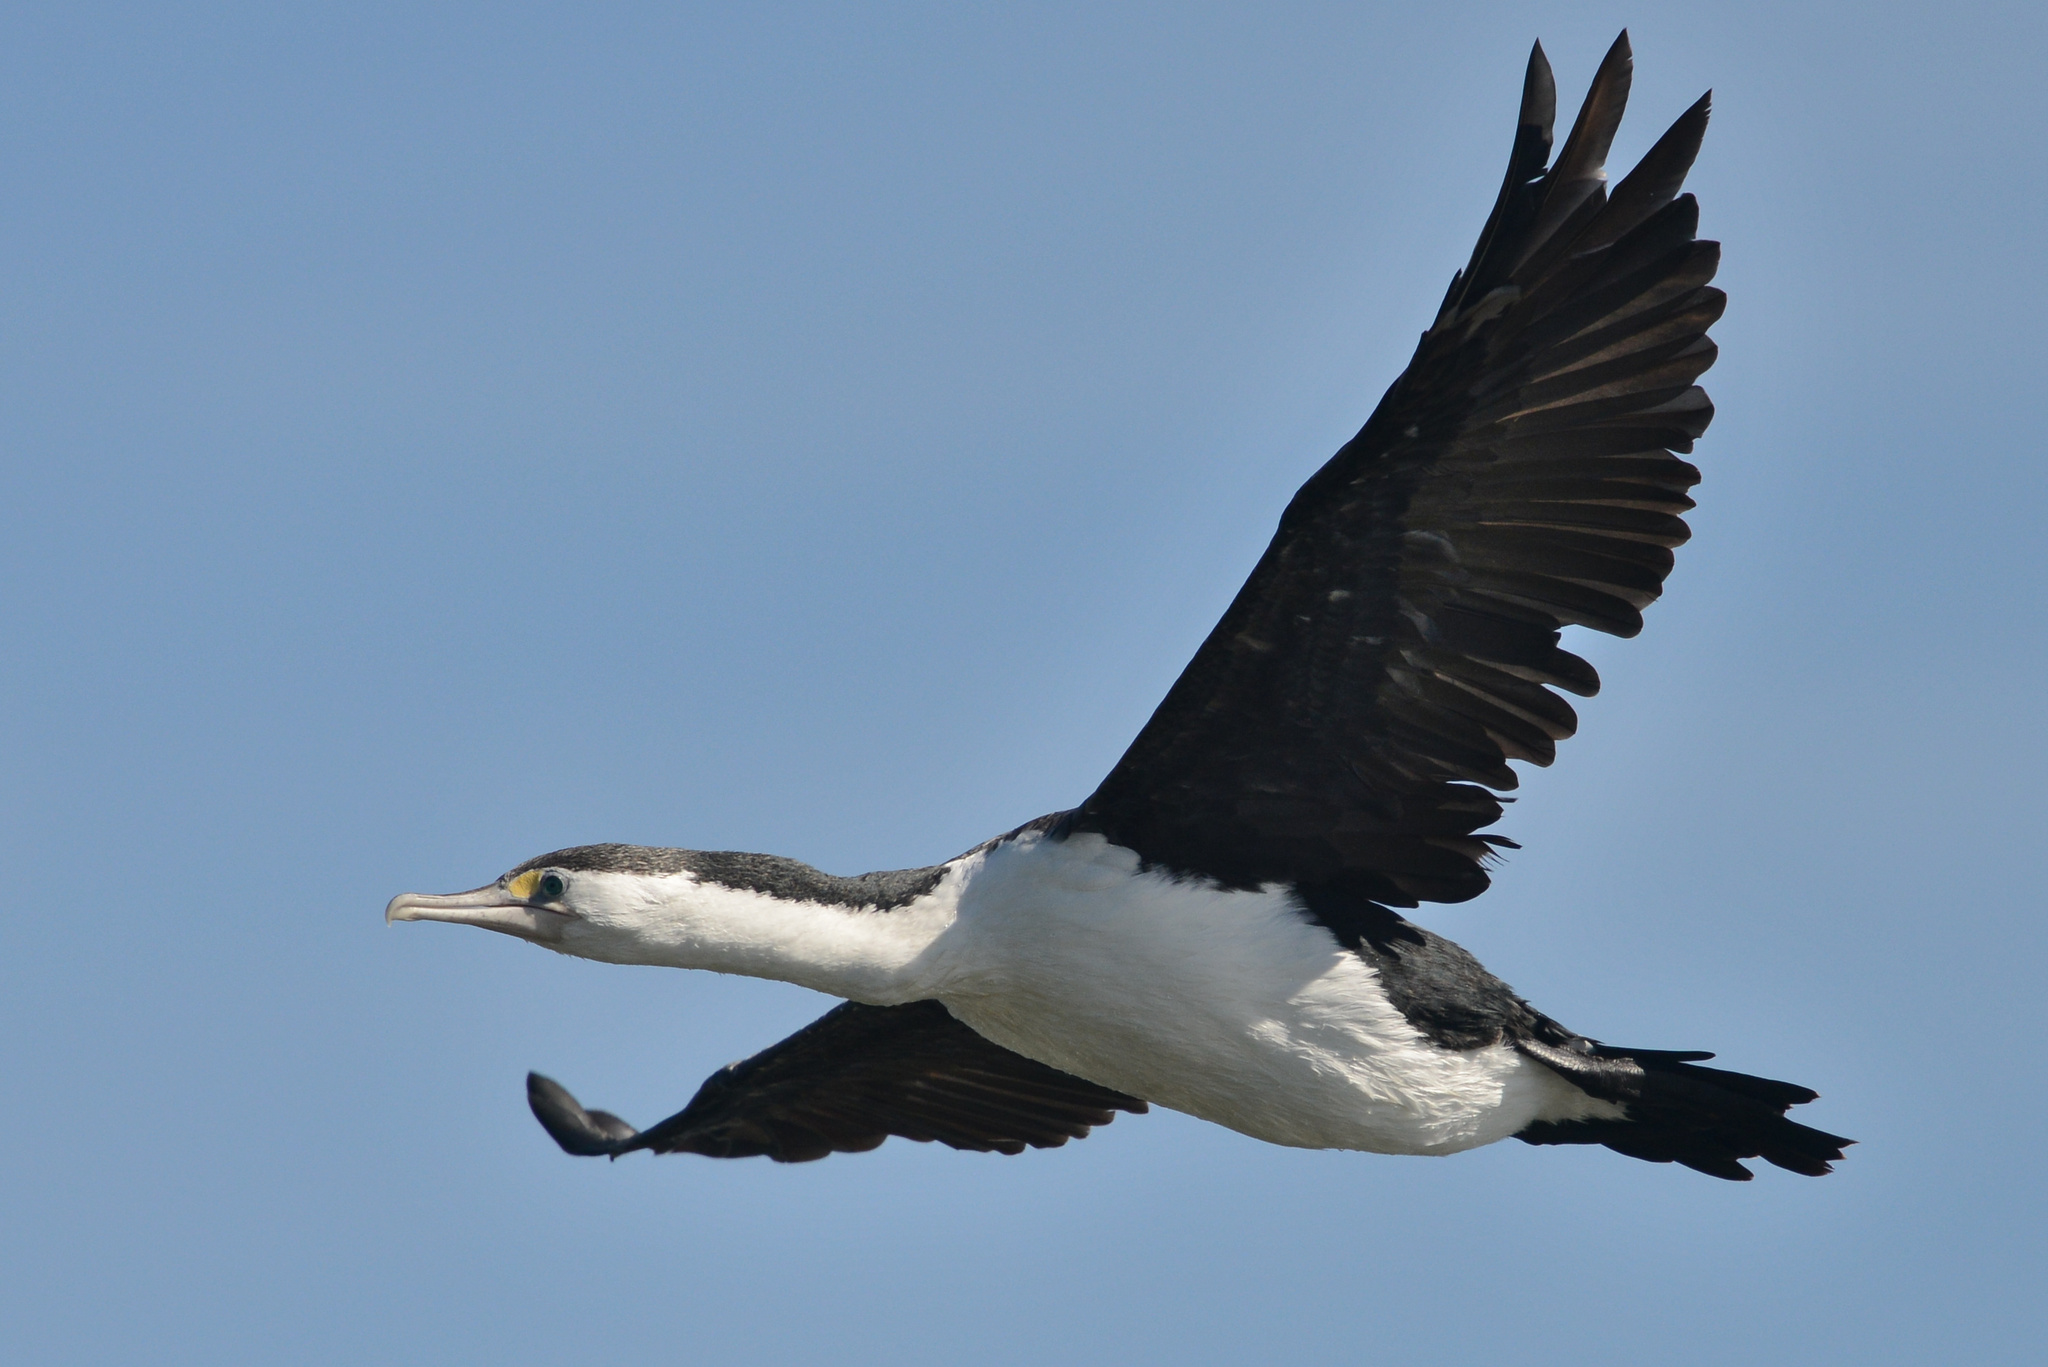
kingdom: Animalia
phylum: Chordata
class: Aves
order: Suliformes
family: Phalacrocoracidae
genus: Phalacrocorax
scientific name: Phalacrocorax varius
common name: Pied cormorant
